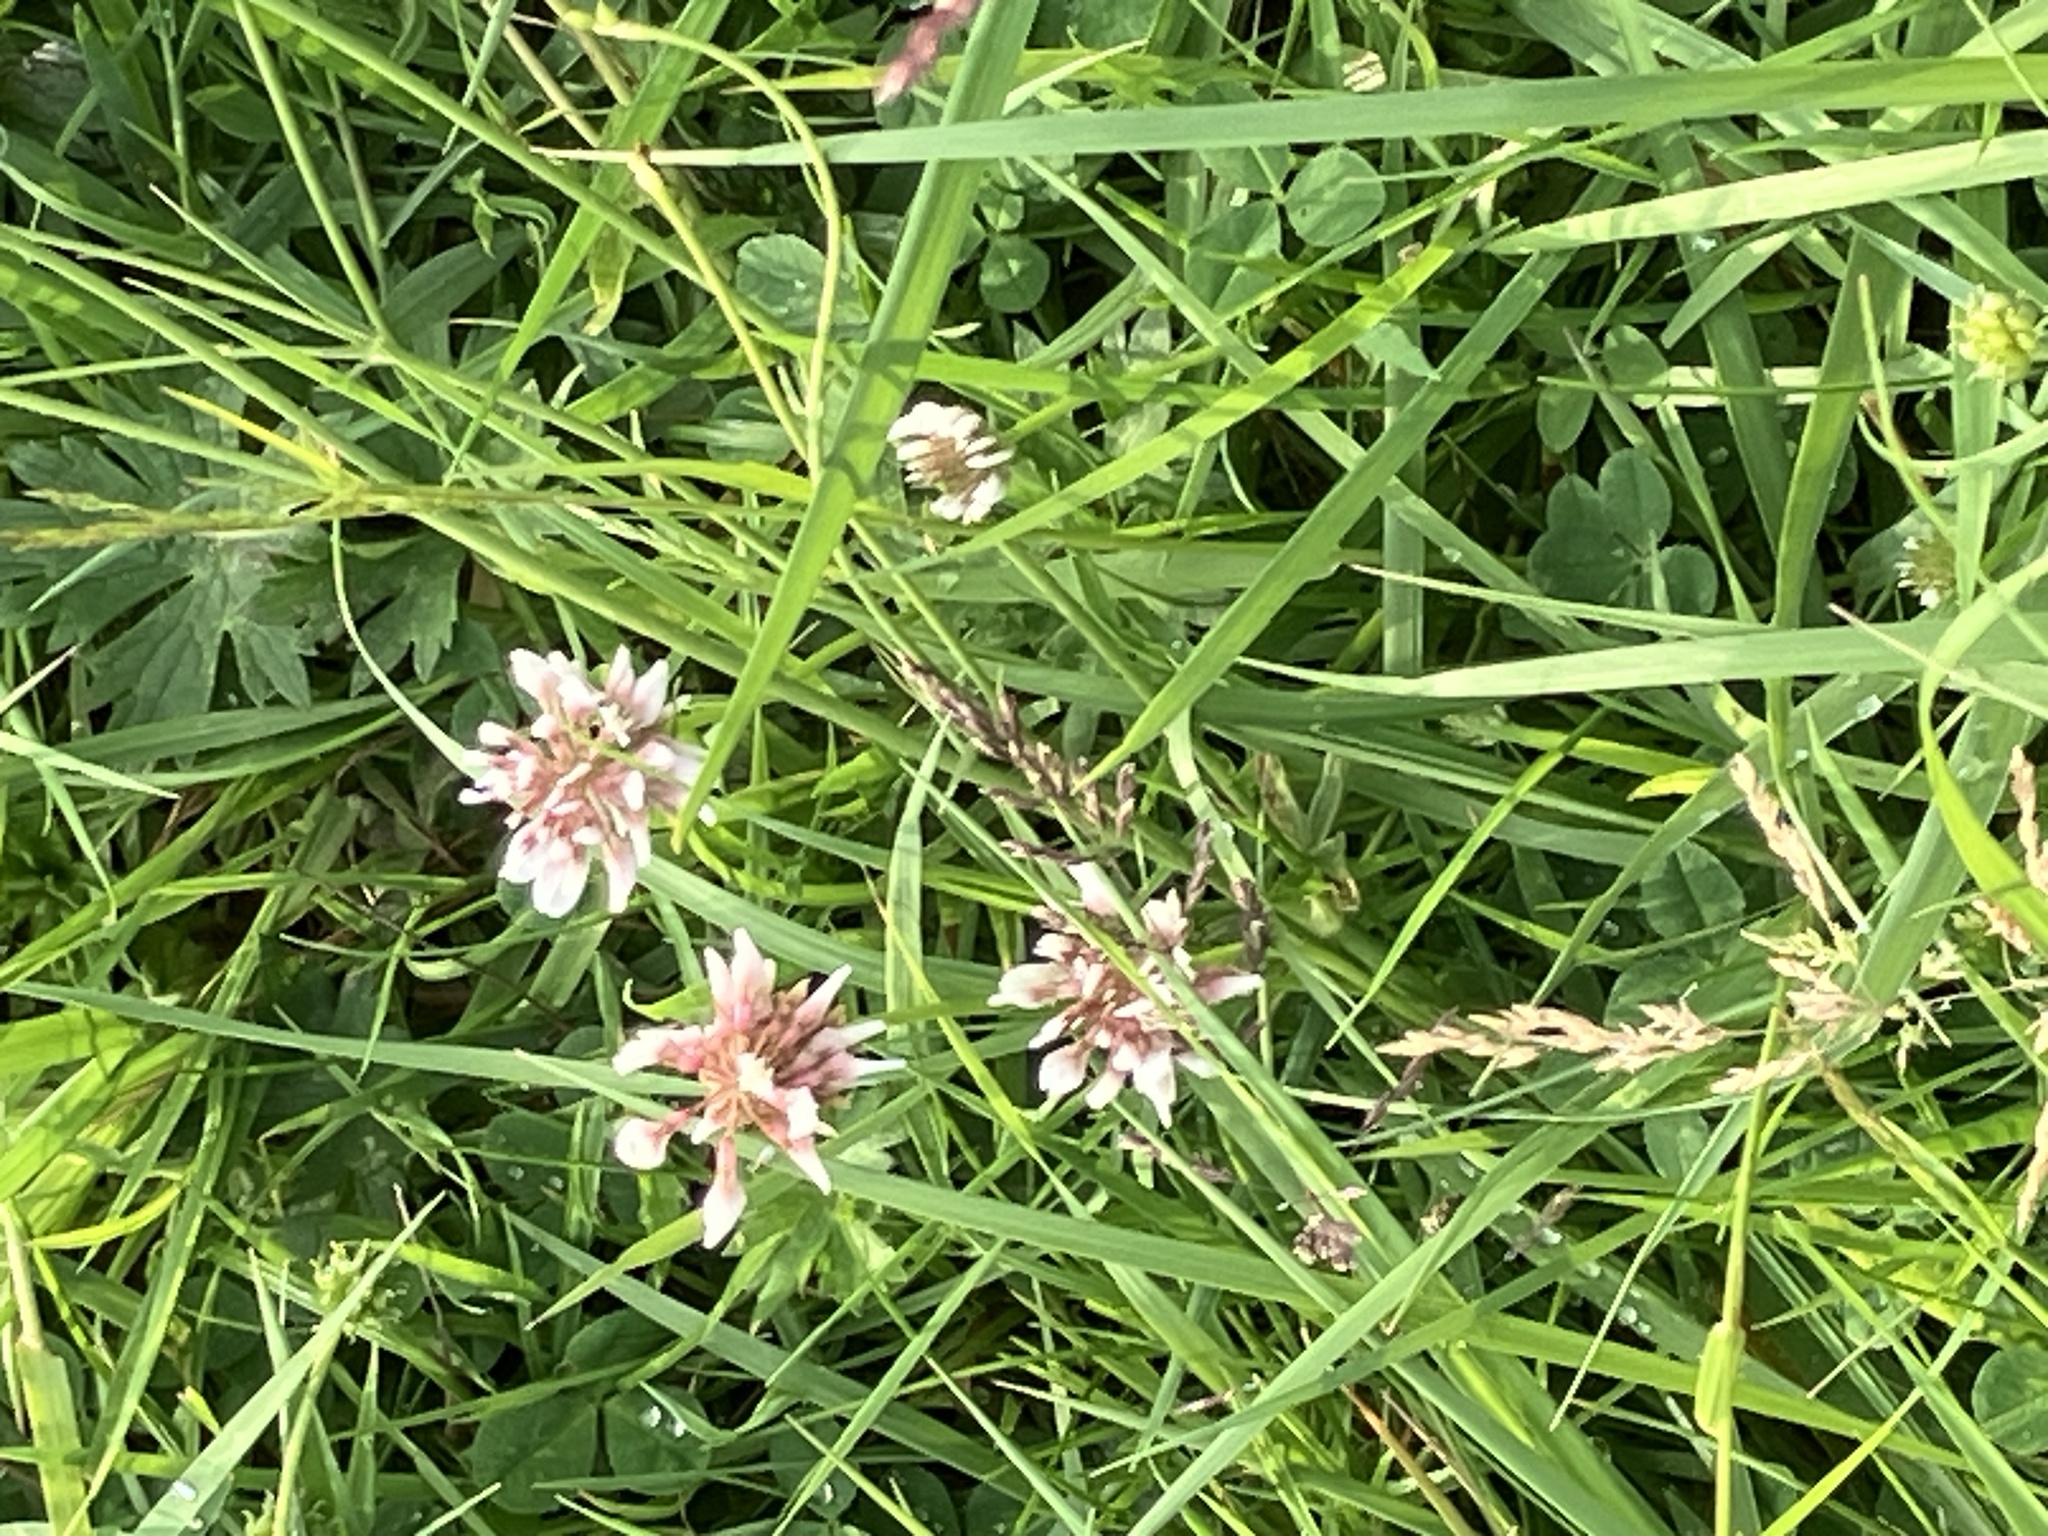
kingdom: Plantae
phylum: Tracheophyta
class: Magnoliopsida
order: Fabales
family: Fabaceae
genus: Trifolium
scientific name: Trifolium repens
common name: White clover
